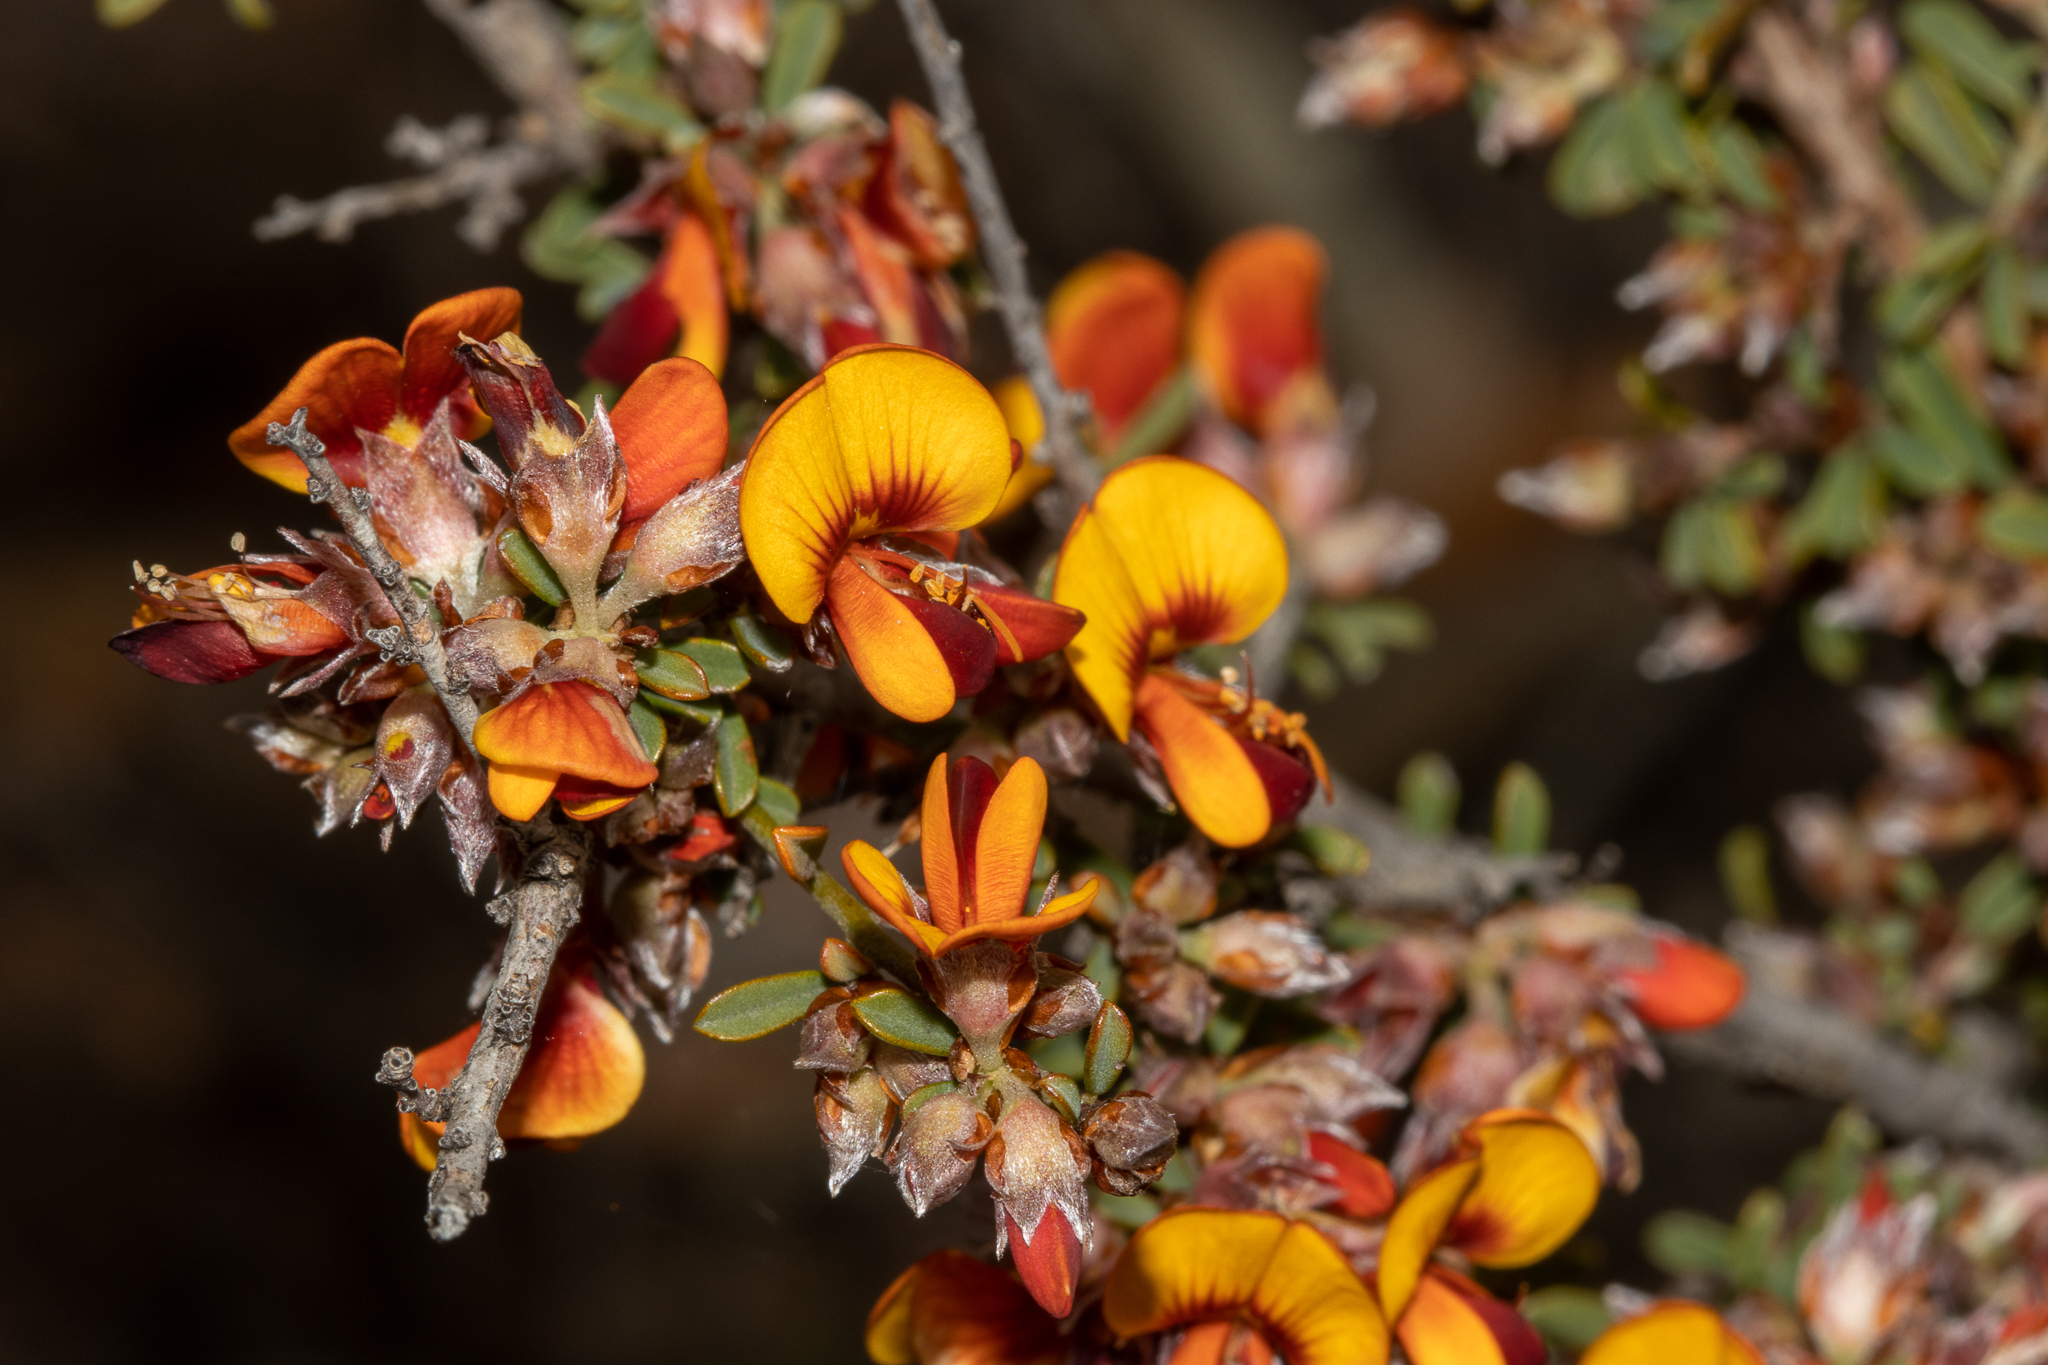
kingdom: Plantae
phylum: Tracheophyta
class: Magnoliopsida
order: Fabales
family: Fabaceae
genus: Pultenaea
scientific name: Pultenaea largiflorens
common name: Twiggy bush-pea
